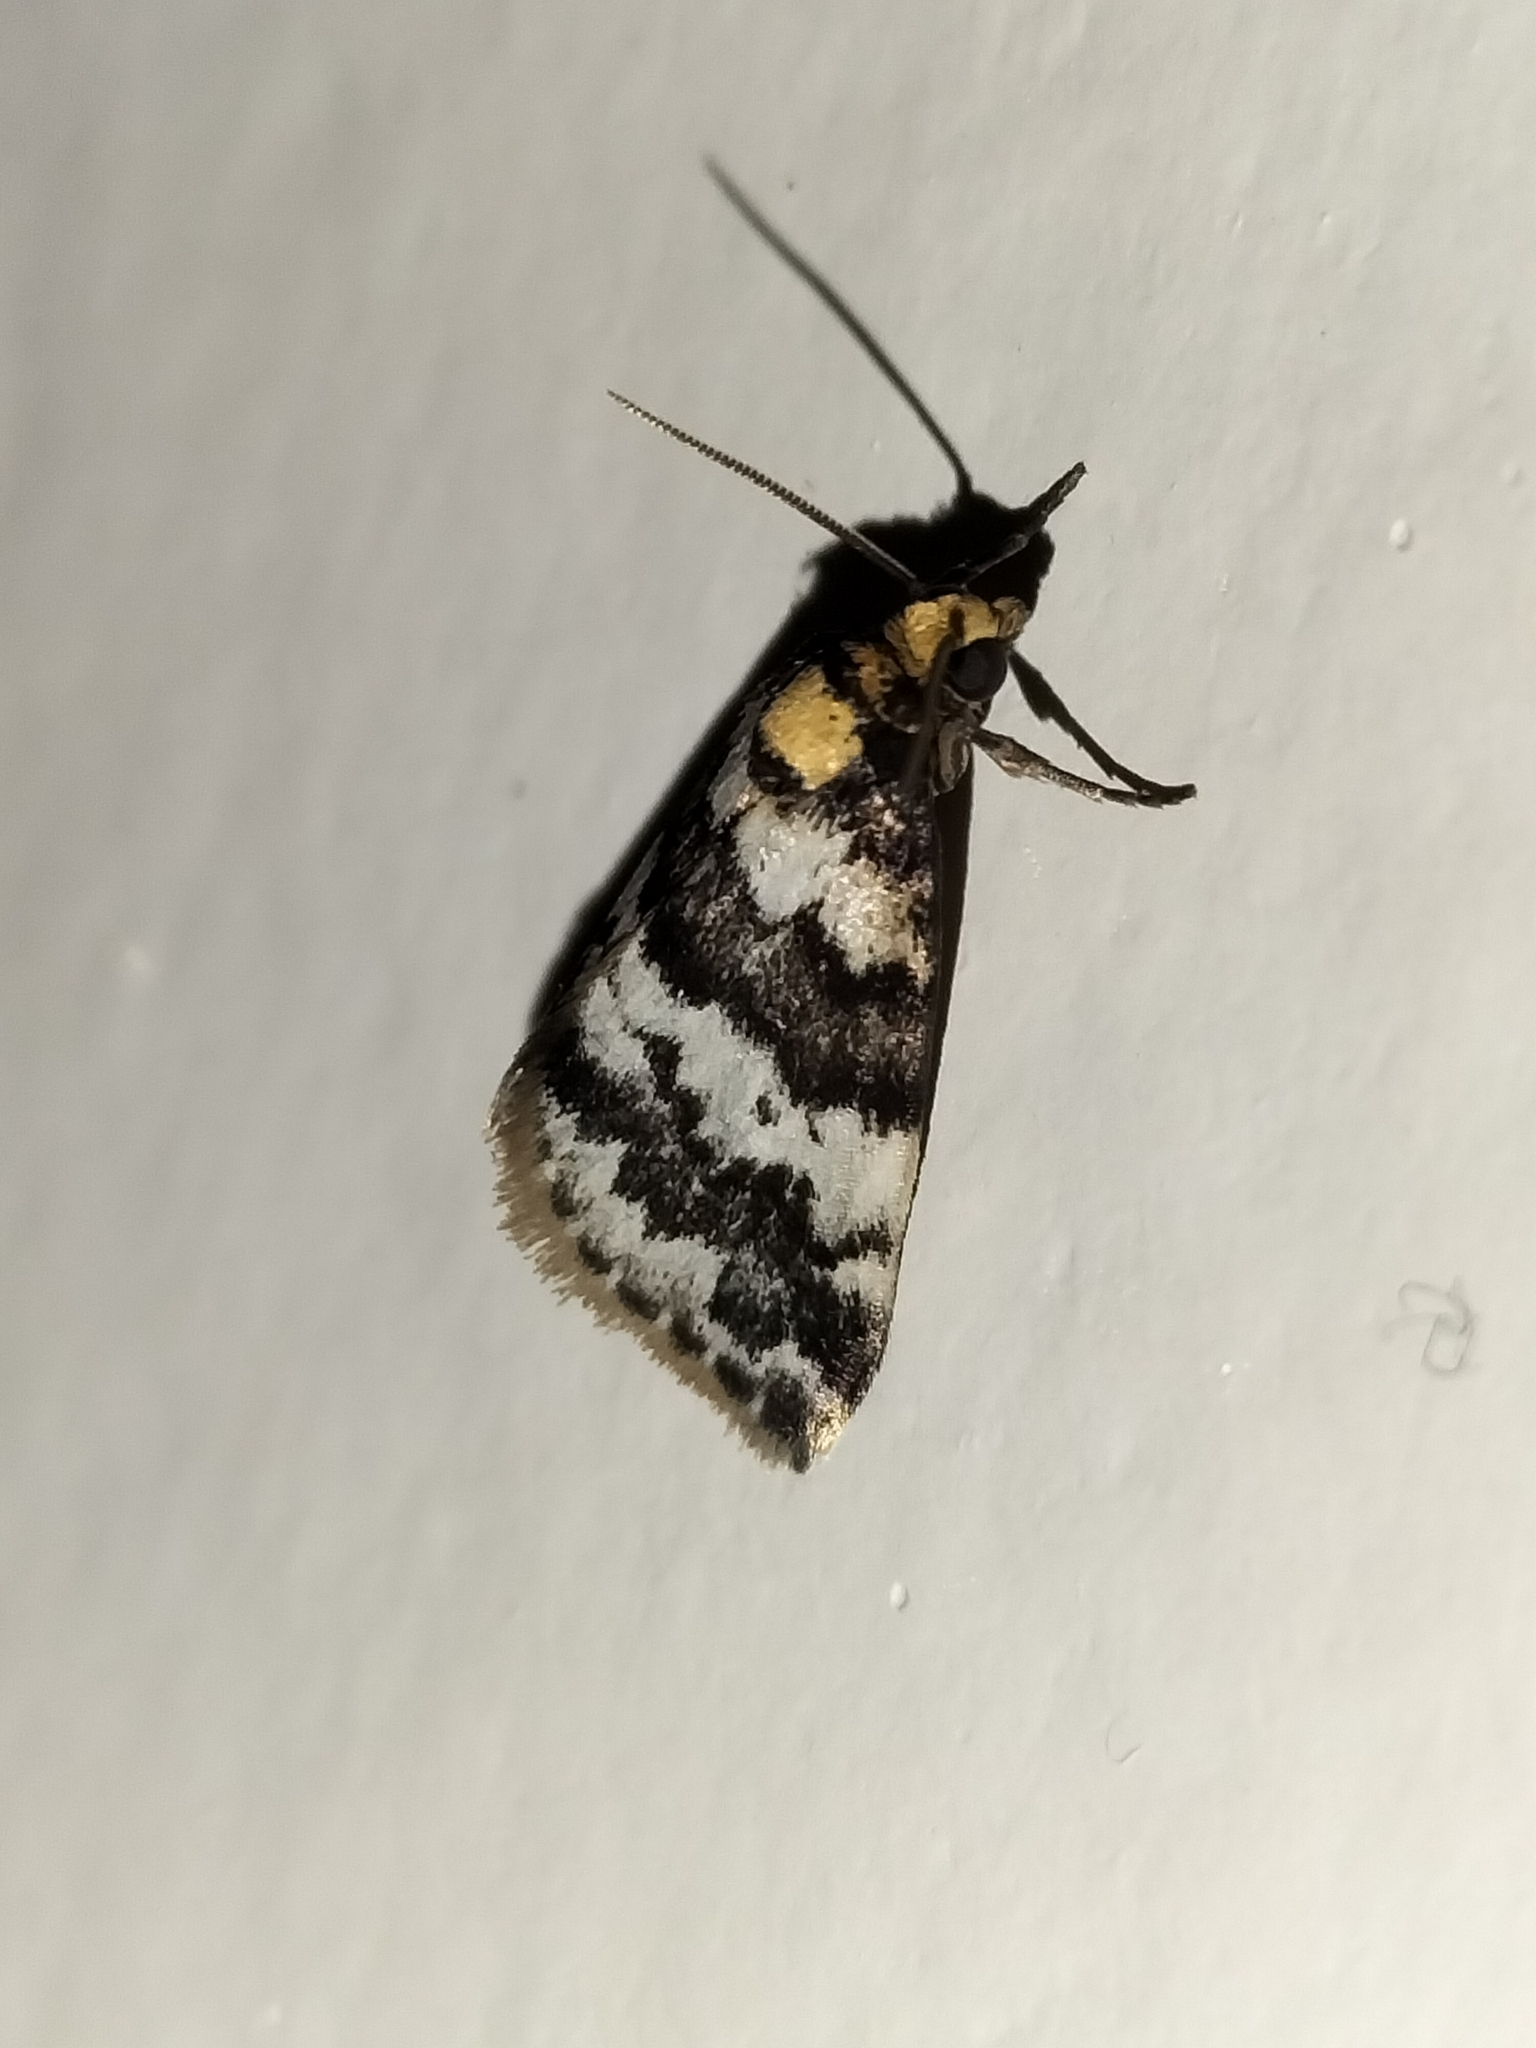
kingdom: Animalia
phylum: Arthropoda
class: Insecta
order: Lepidoptera
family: Noctuidae
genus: Habrophyes
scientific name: Habrophyes xuthosoma
